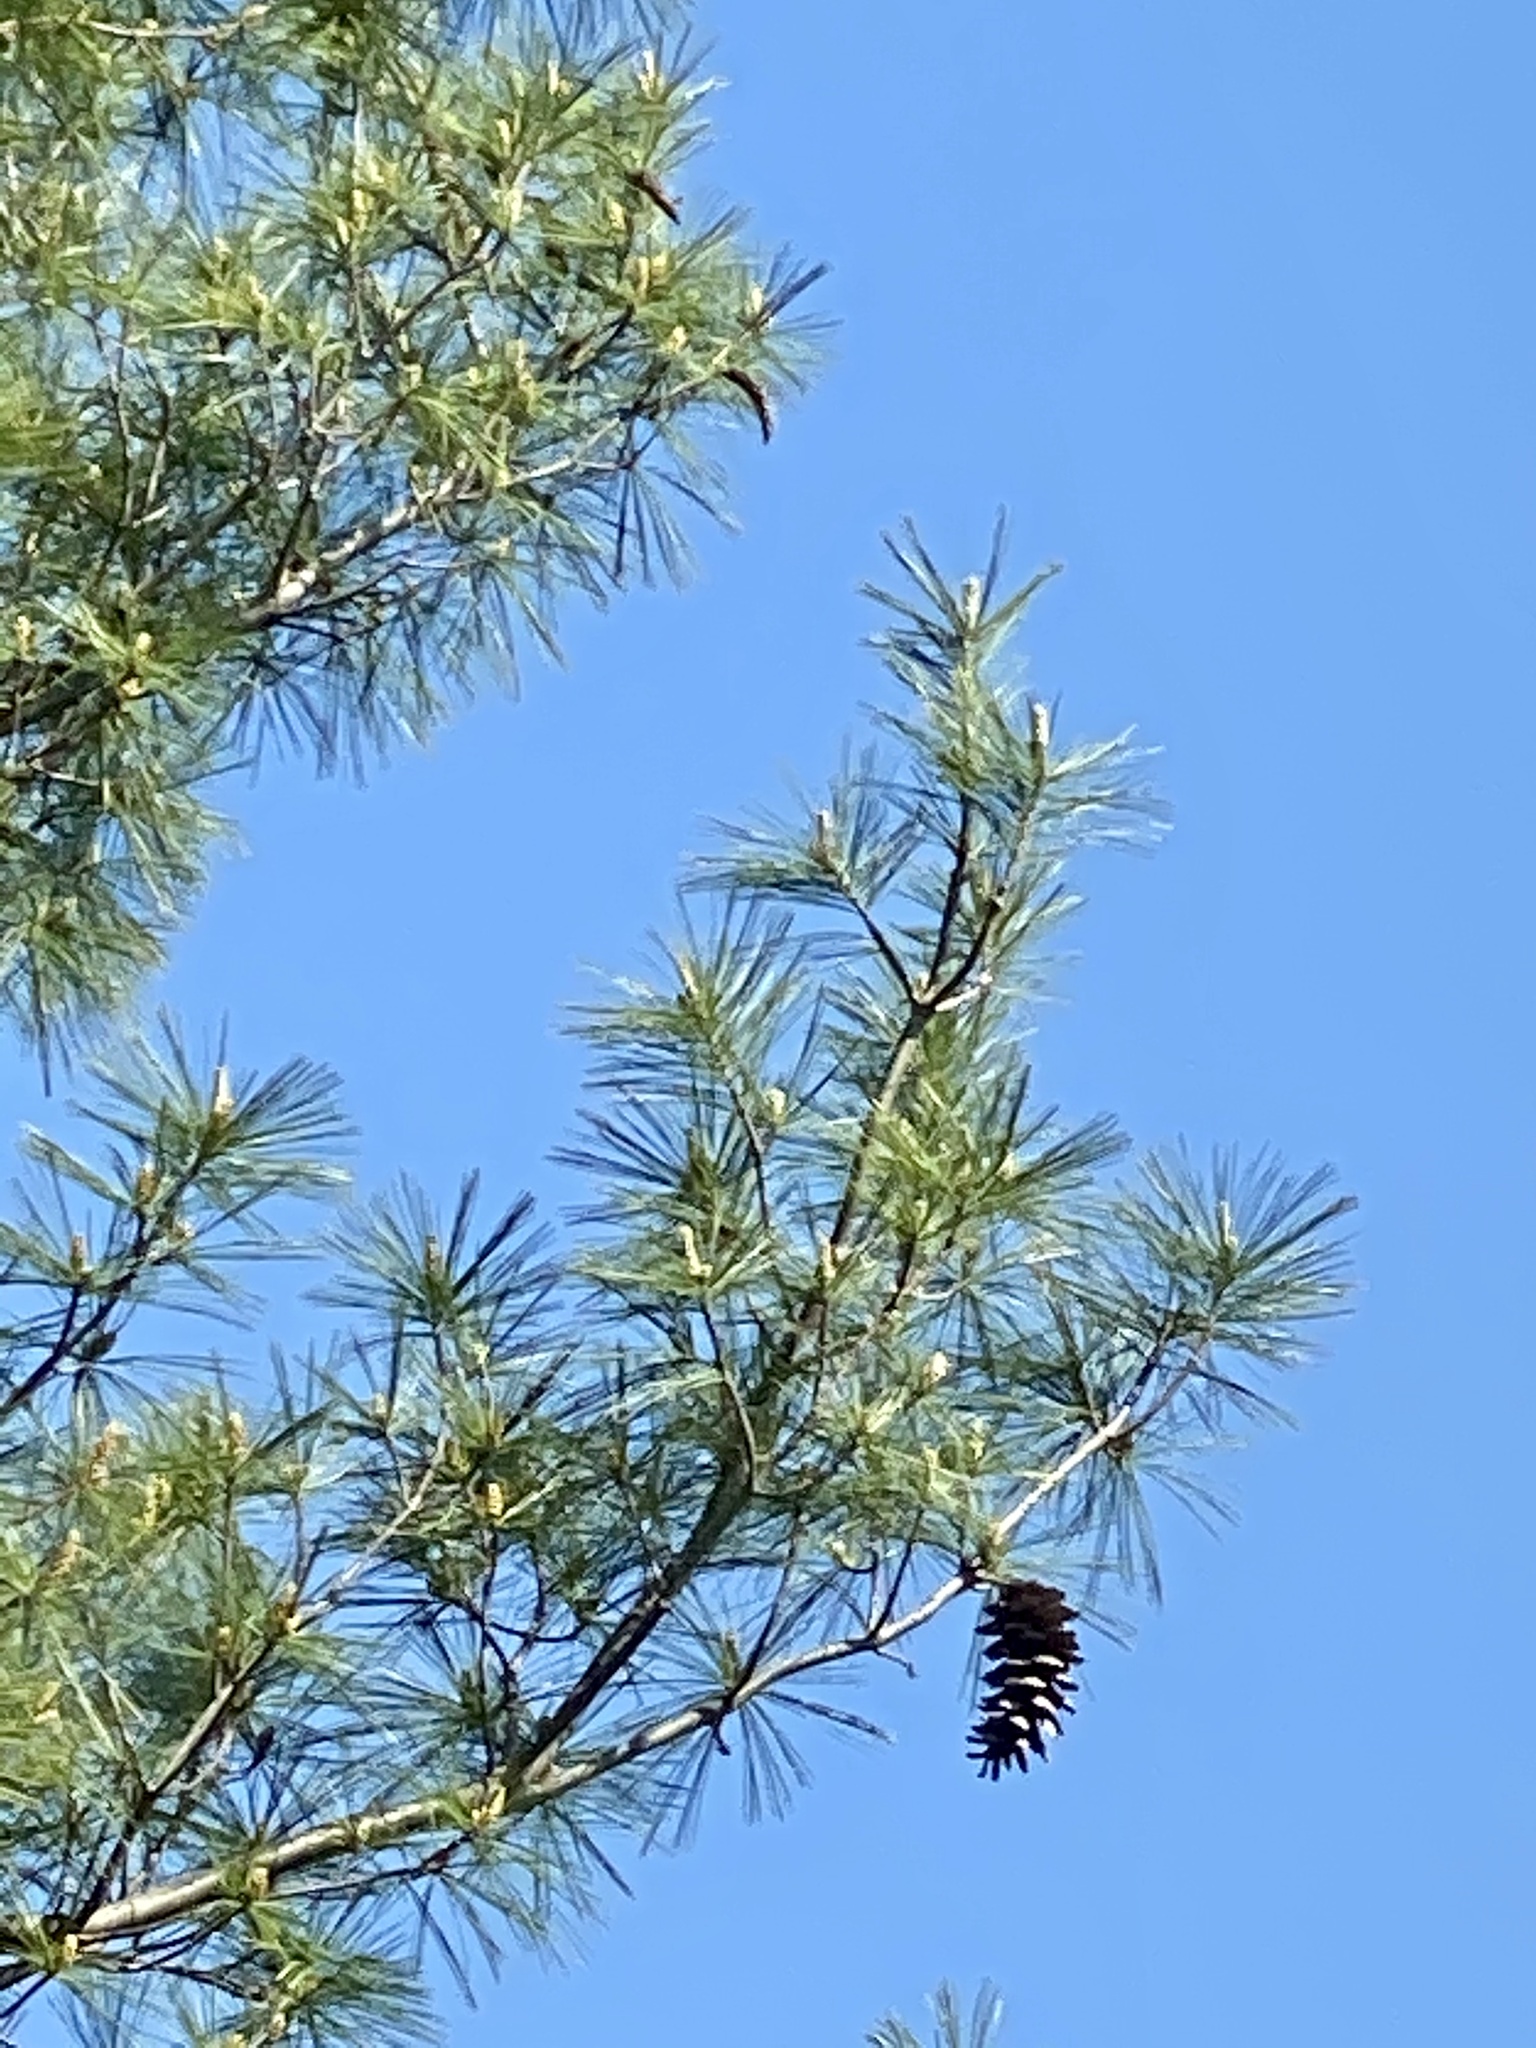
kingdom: Plantae
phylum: Tracheophyta
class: Pinopsida
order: Pinales
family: Pinaceae
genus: Pinus
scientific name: Pinus strobus
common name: Weymouth pine
